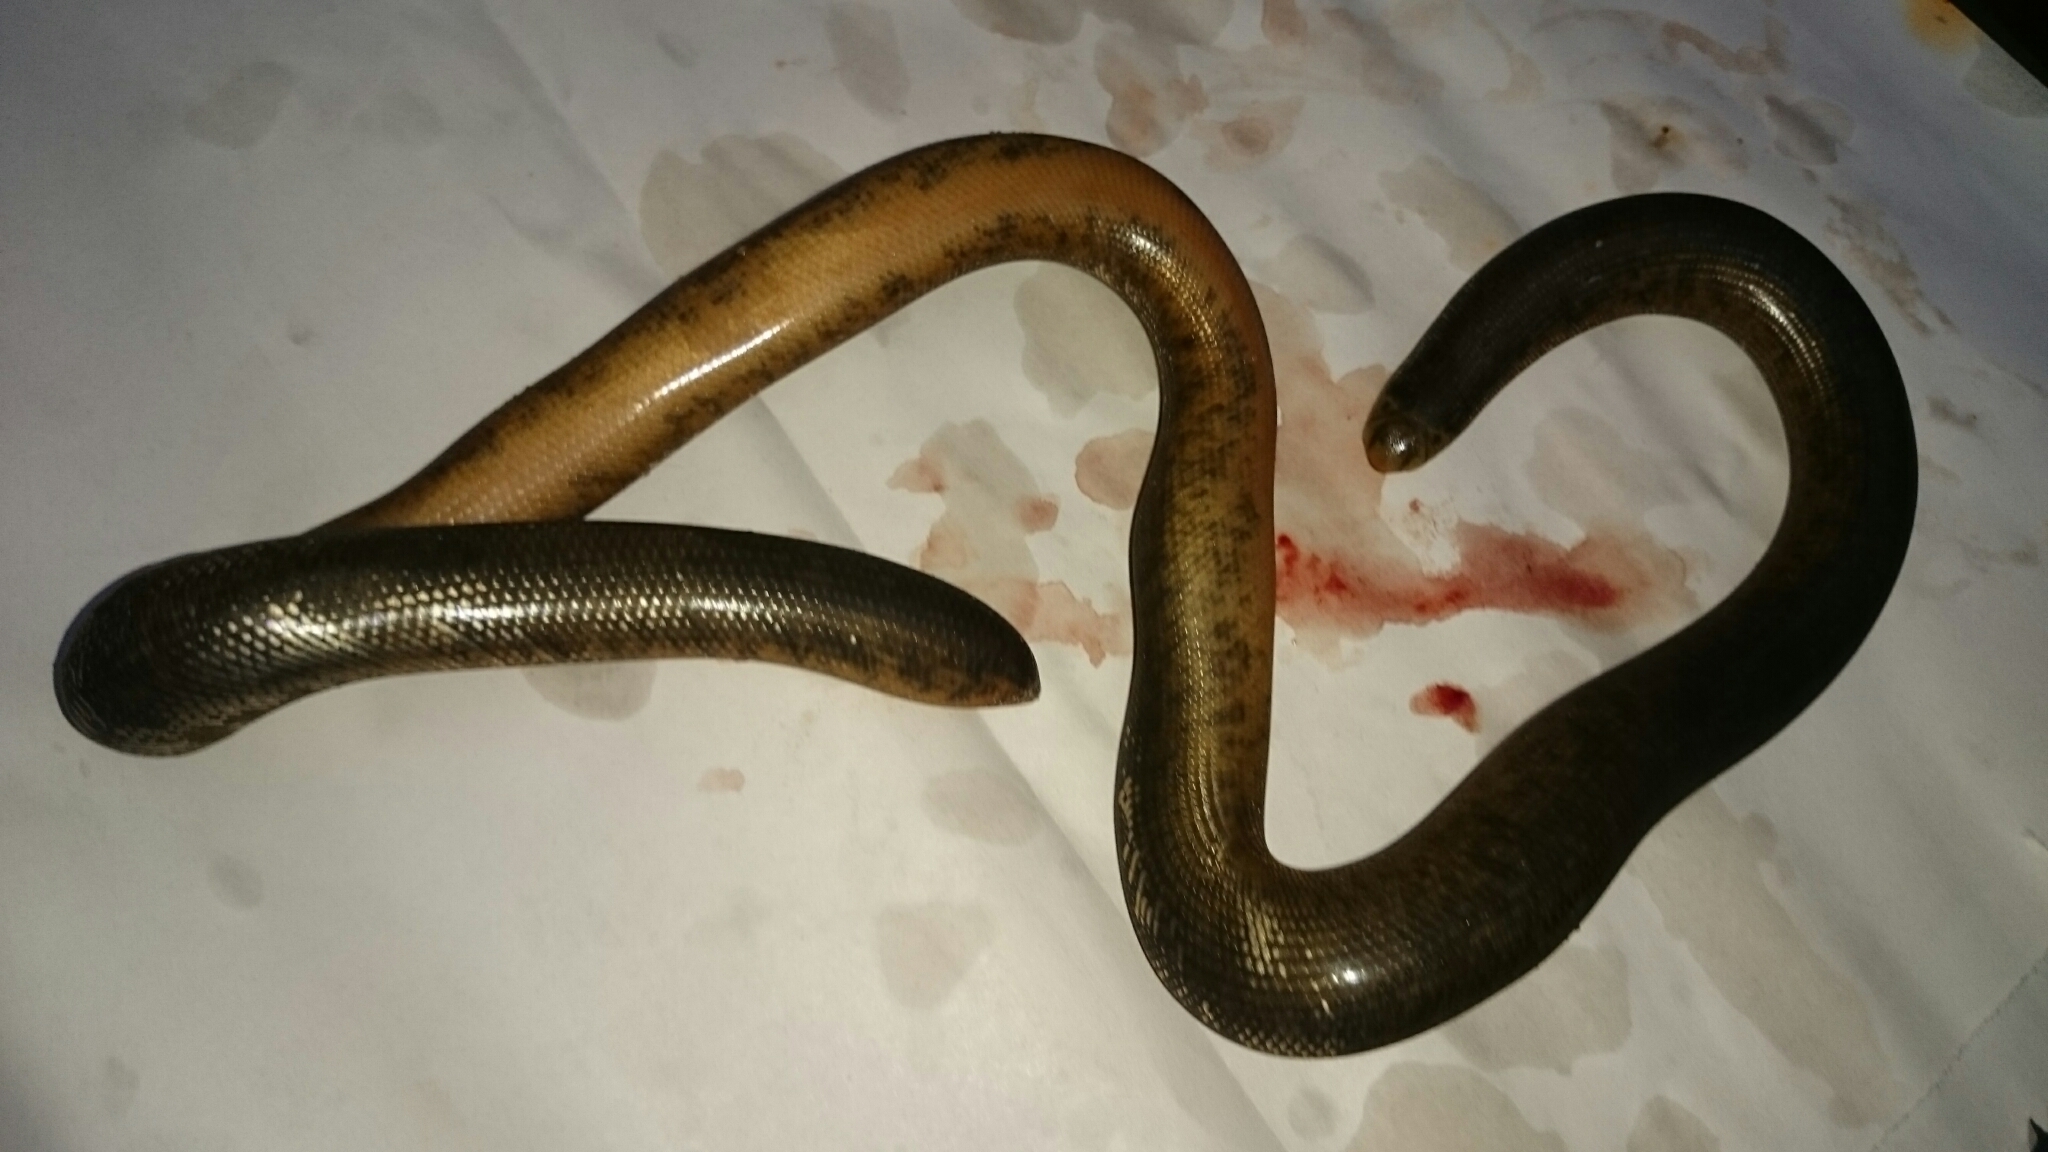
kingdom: Animalia
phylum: Chordata
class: Squamata
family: Typhlopidae
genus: Afrotyphlops
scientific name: Afrotyphlops schlegelii
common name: Schlegel's giant blind snake
